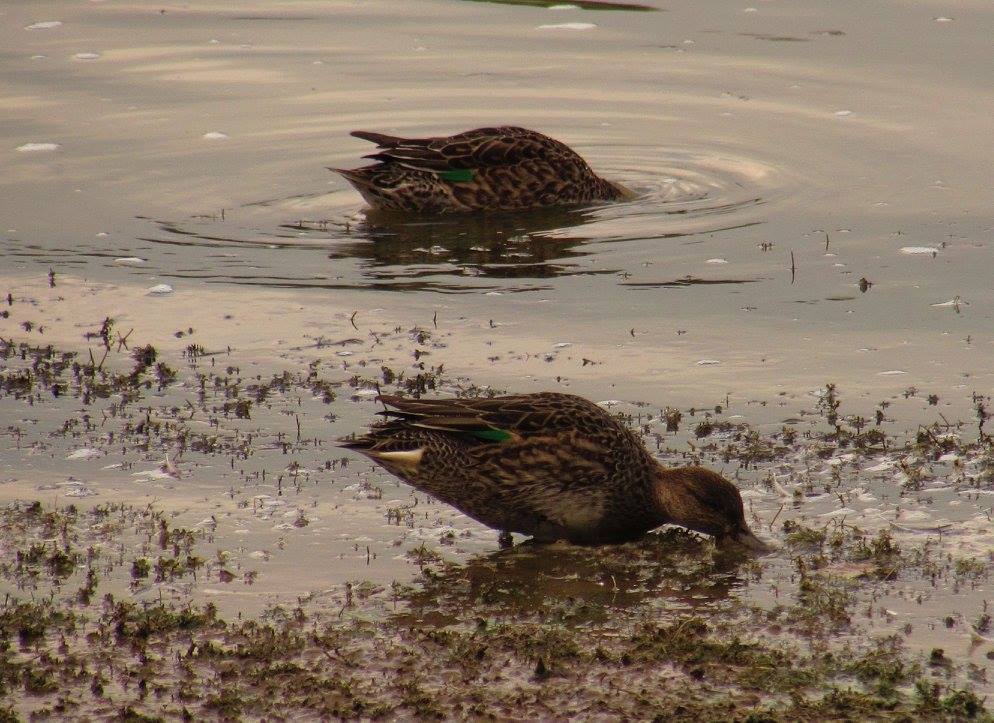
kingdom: Animalia
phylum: Chordata
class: Aves
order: Anseriformes
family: Anatidae
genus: Anas
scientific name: Anas crecca
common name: Eurasian teal
